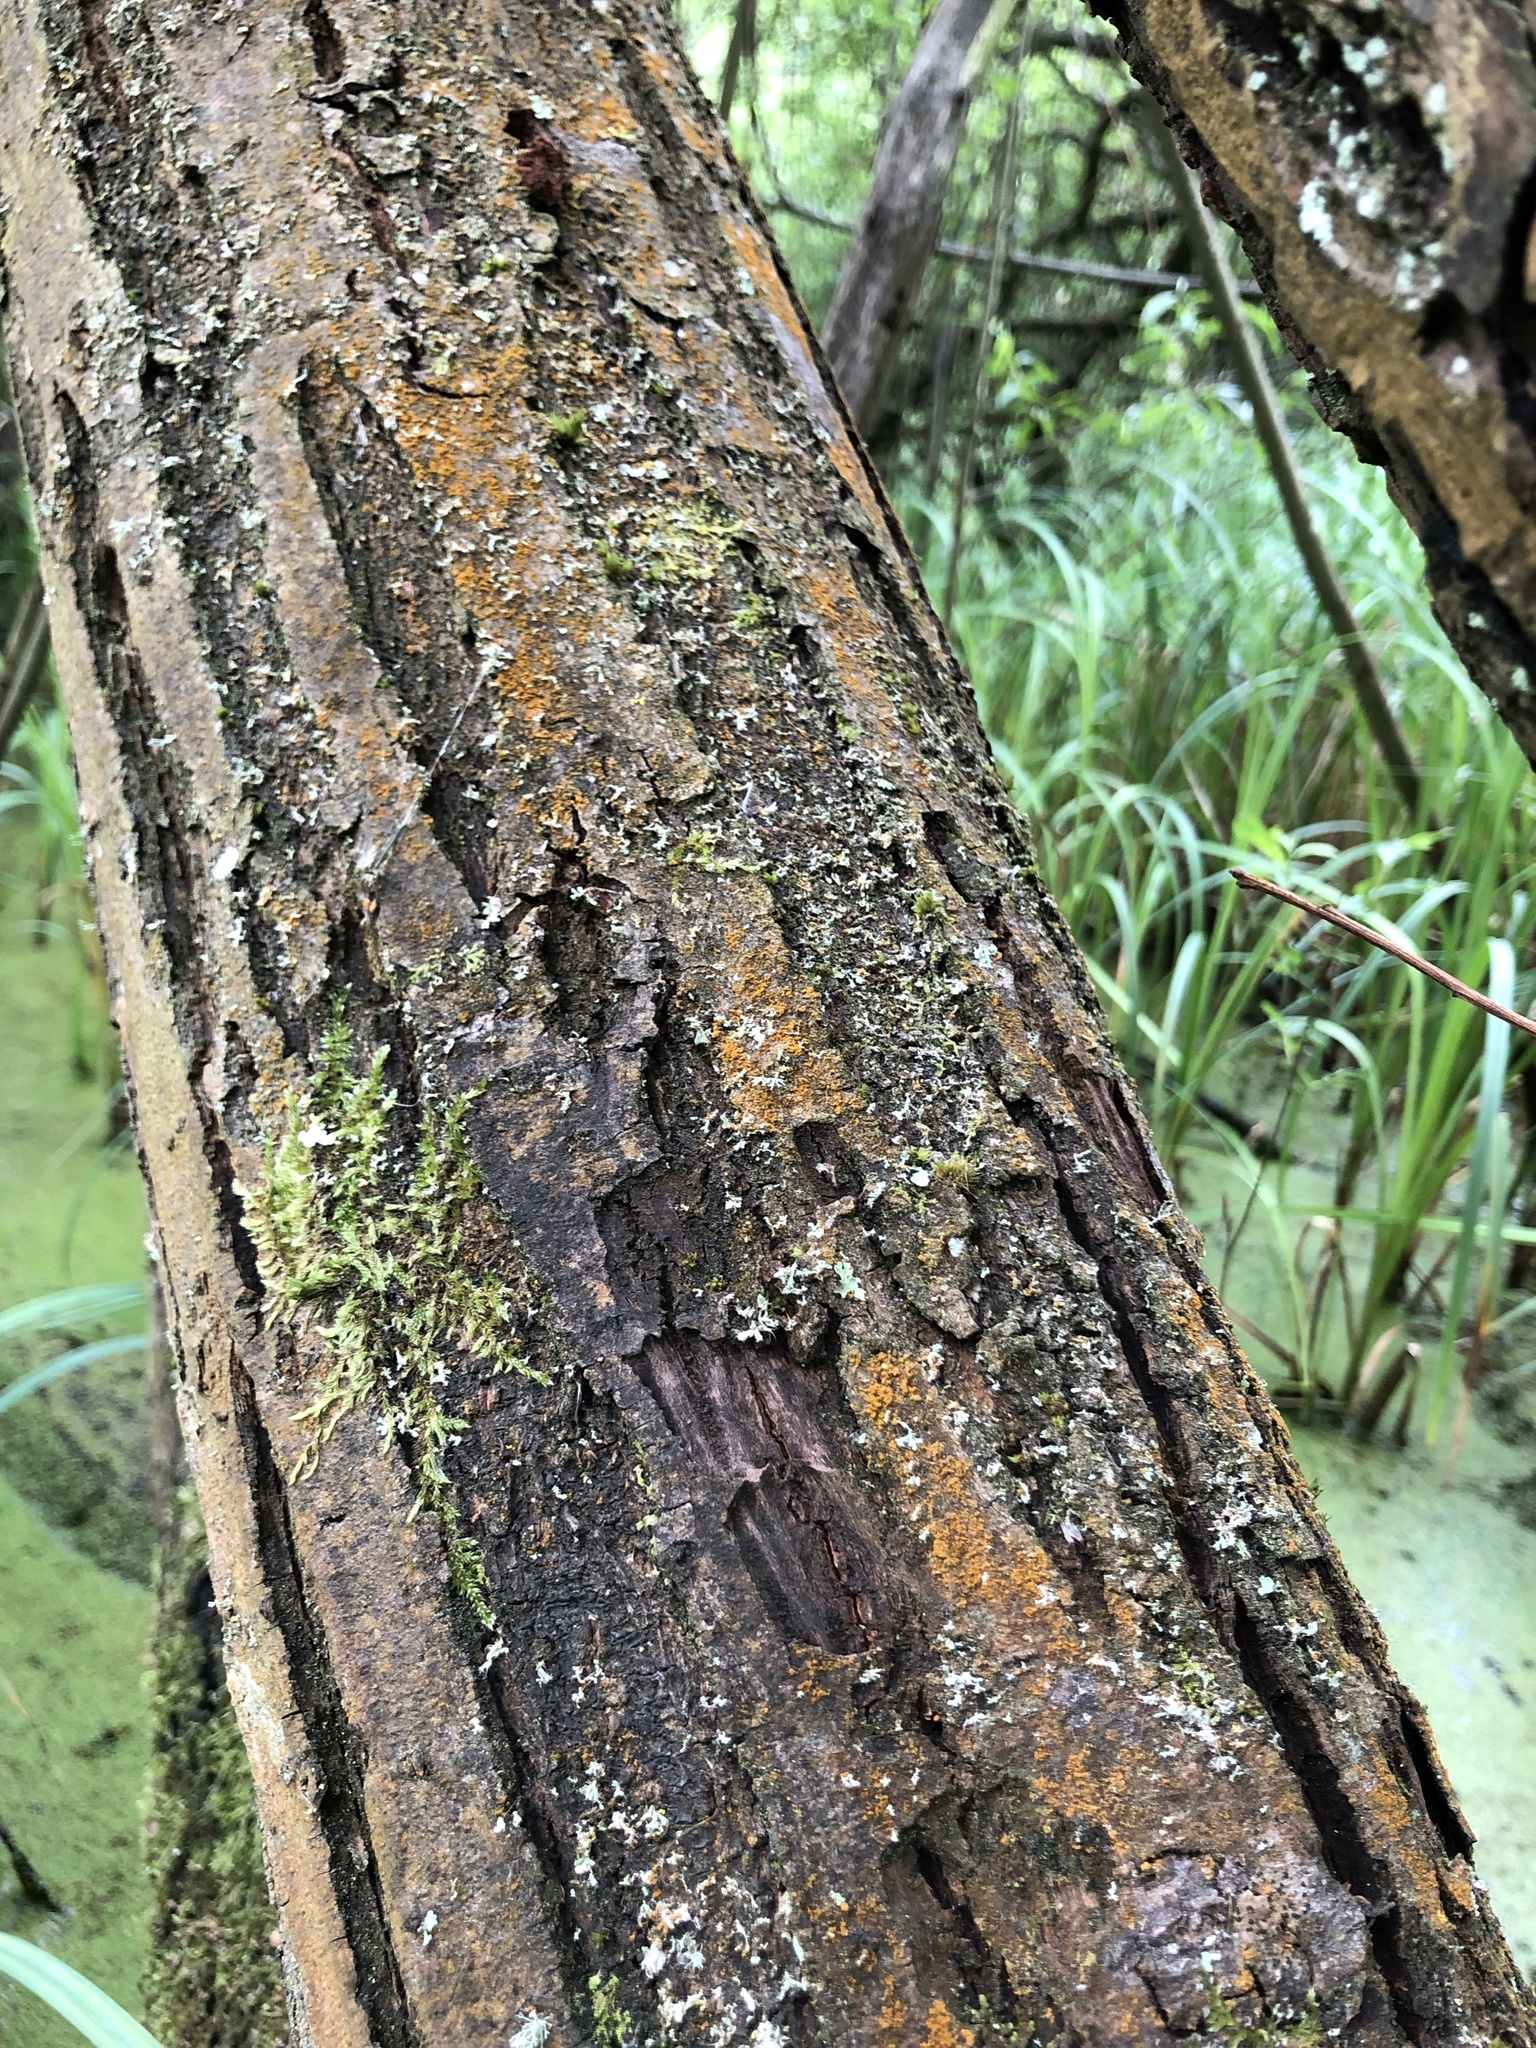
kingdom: Plantae
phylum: Marchantiophyta
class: Jungermanniopsida
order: Porellales
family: Lejeuneaceae
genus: Myriocoleopsis
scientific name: Myriocoleopsis minutissima
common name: Minute pouncewort
